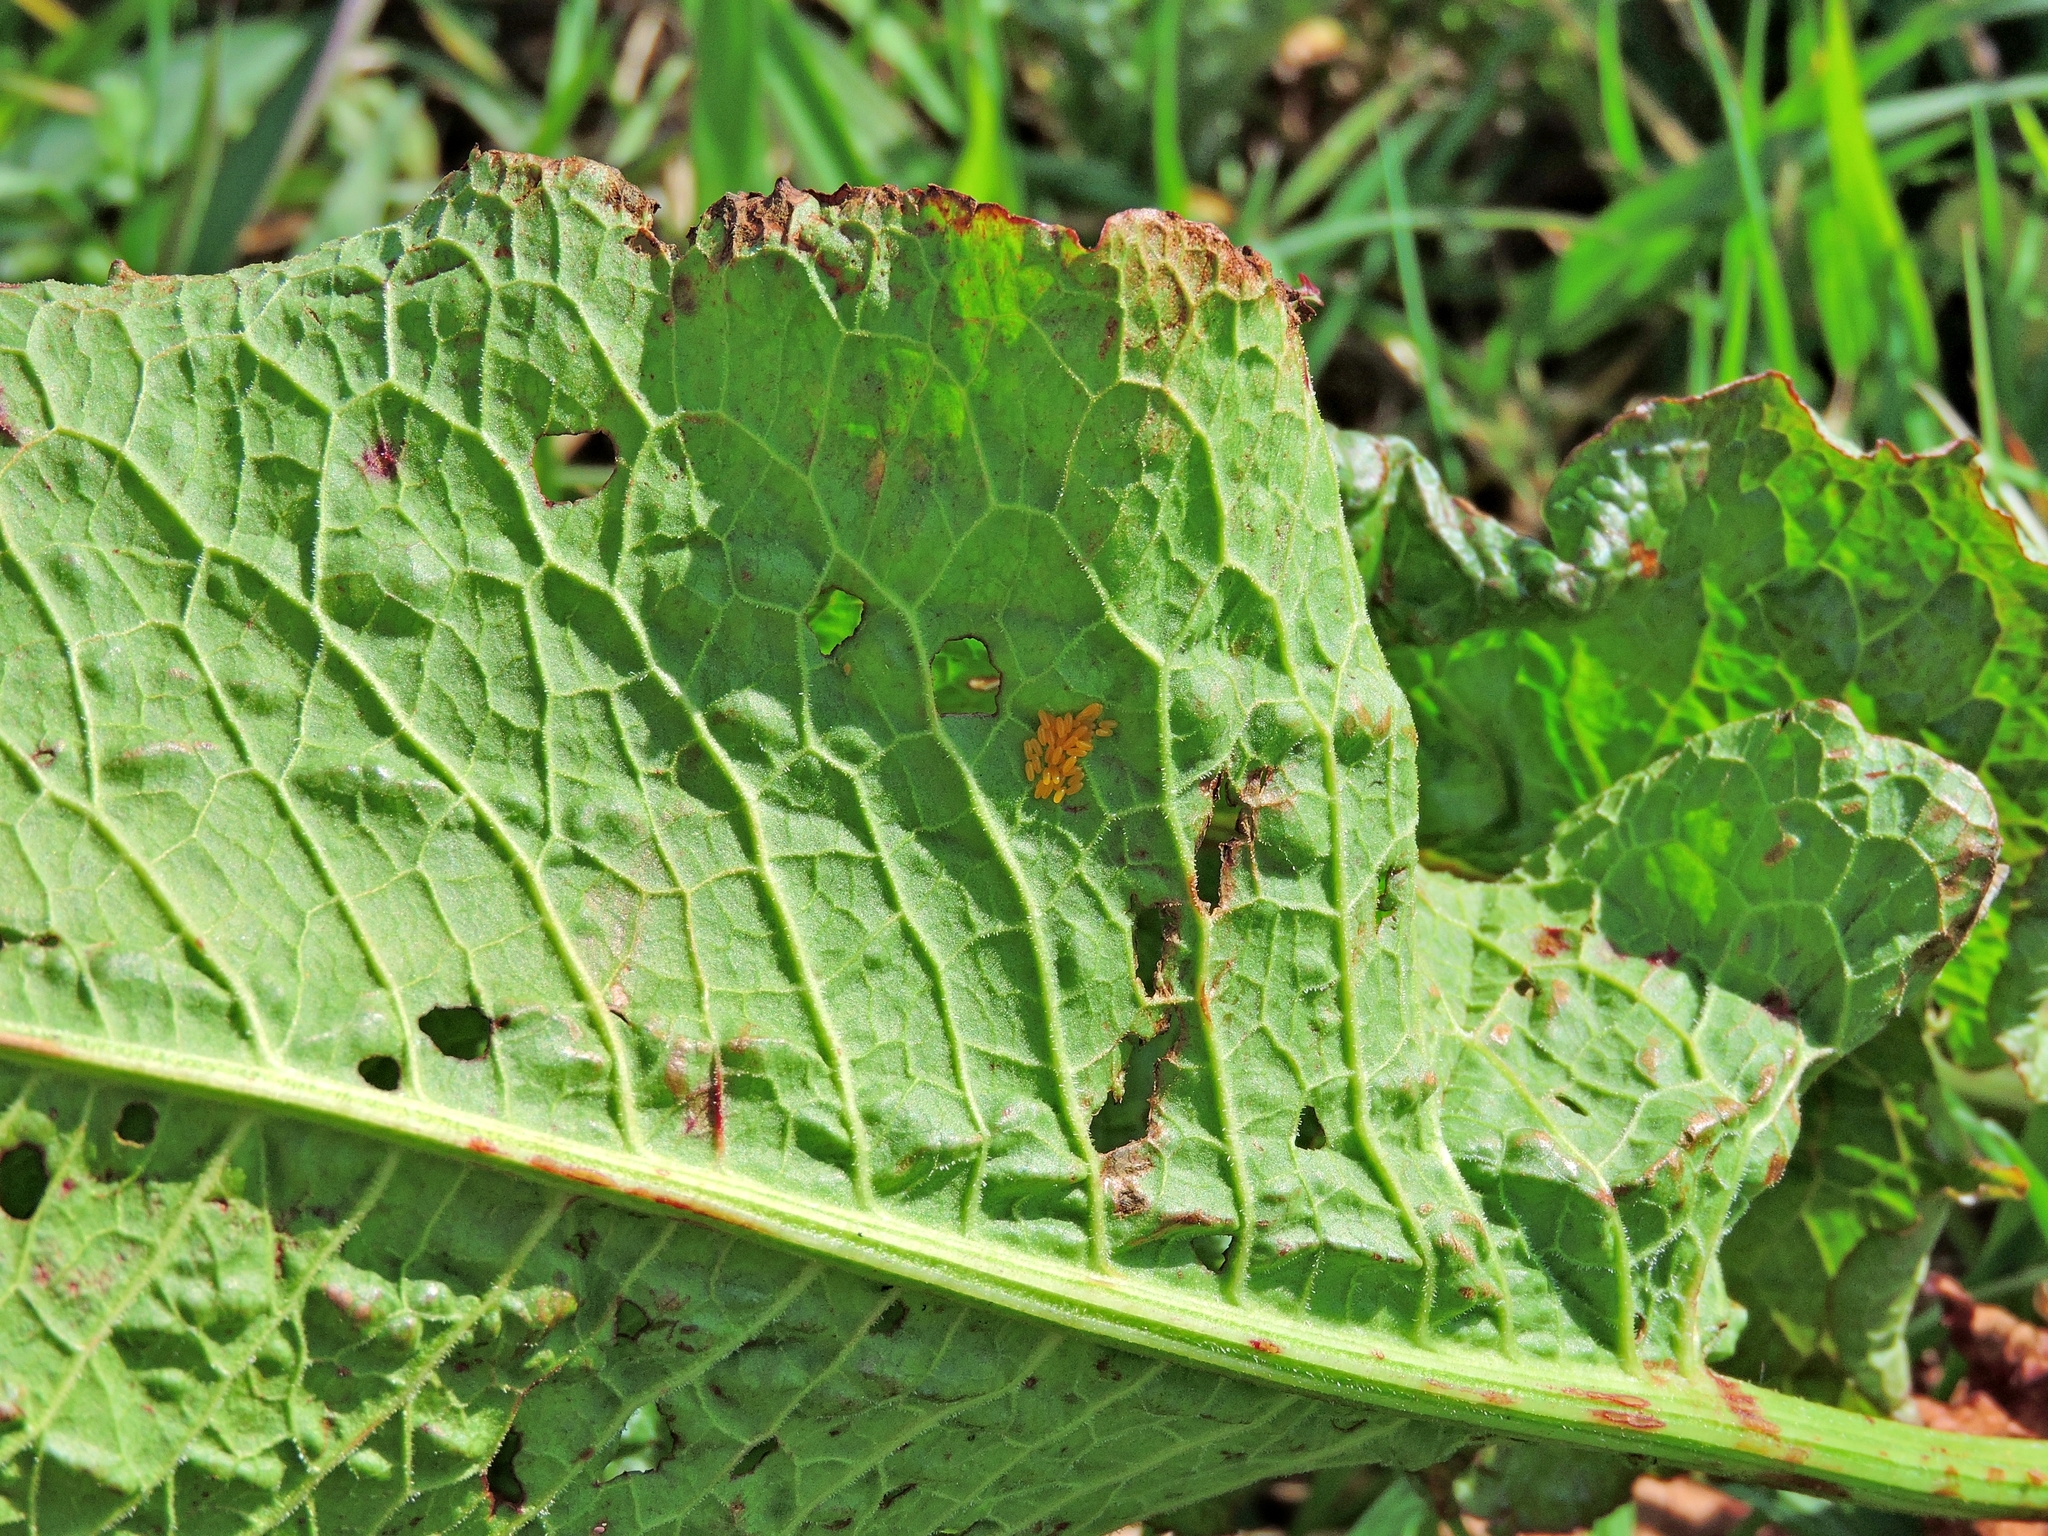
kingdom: Animalia
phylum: Arthropoda
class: Insecta
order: Coleoptera
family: Chrysomelidae
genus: Gastrophysa
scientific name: Gastrophysa viridula
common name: Green dock beetle
